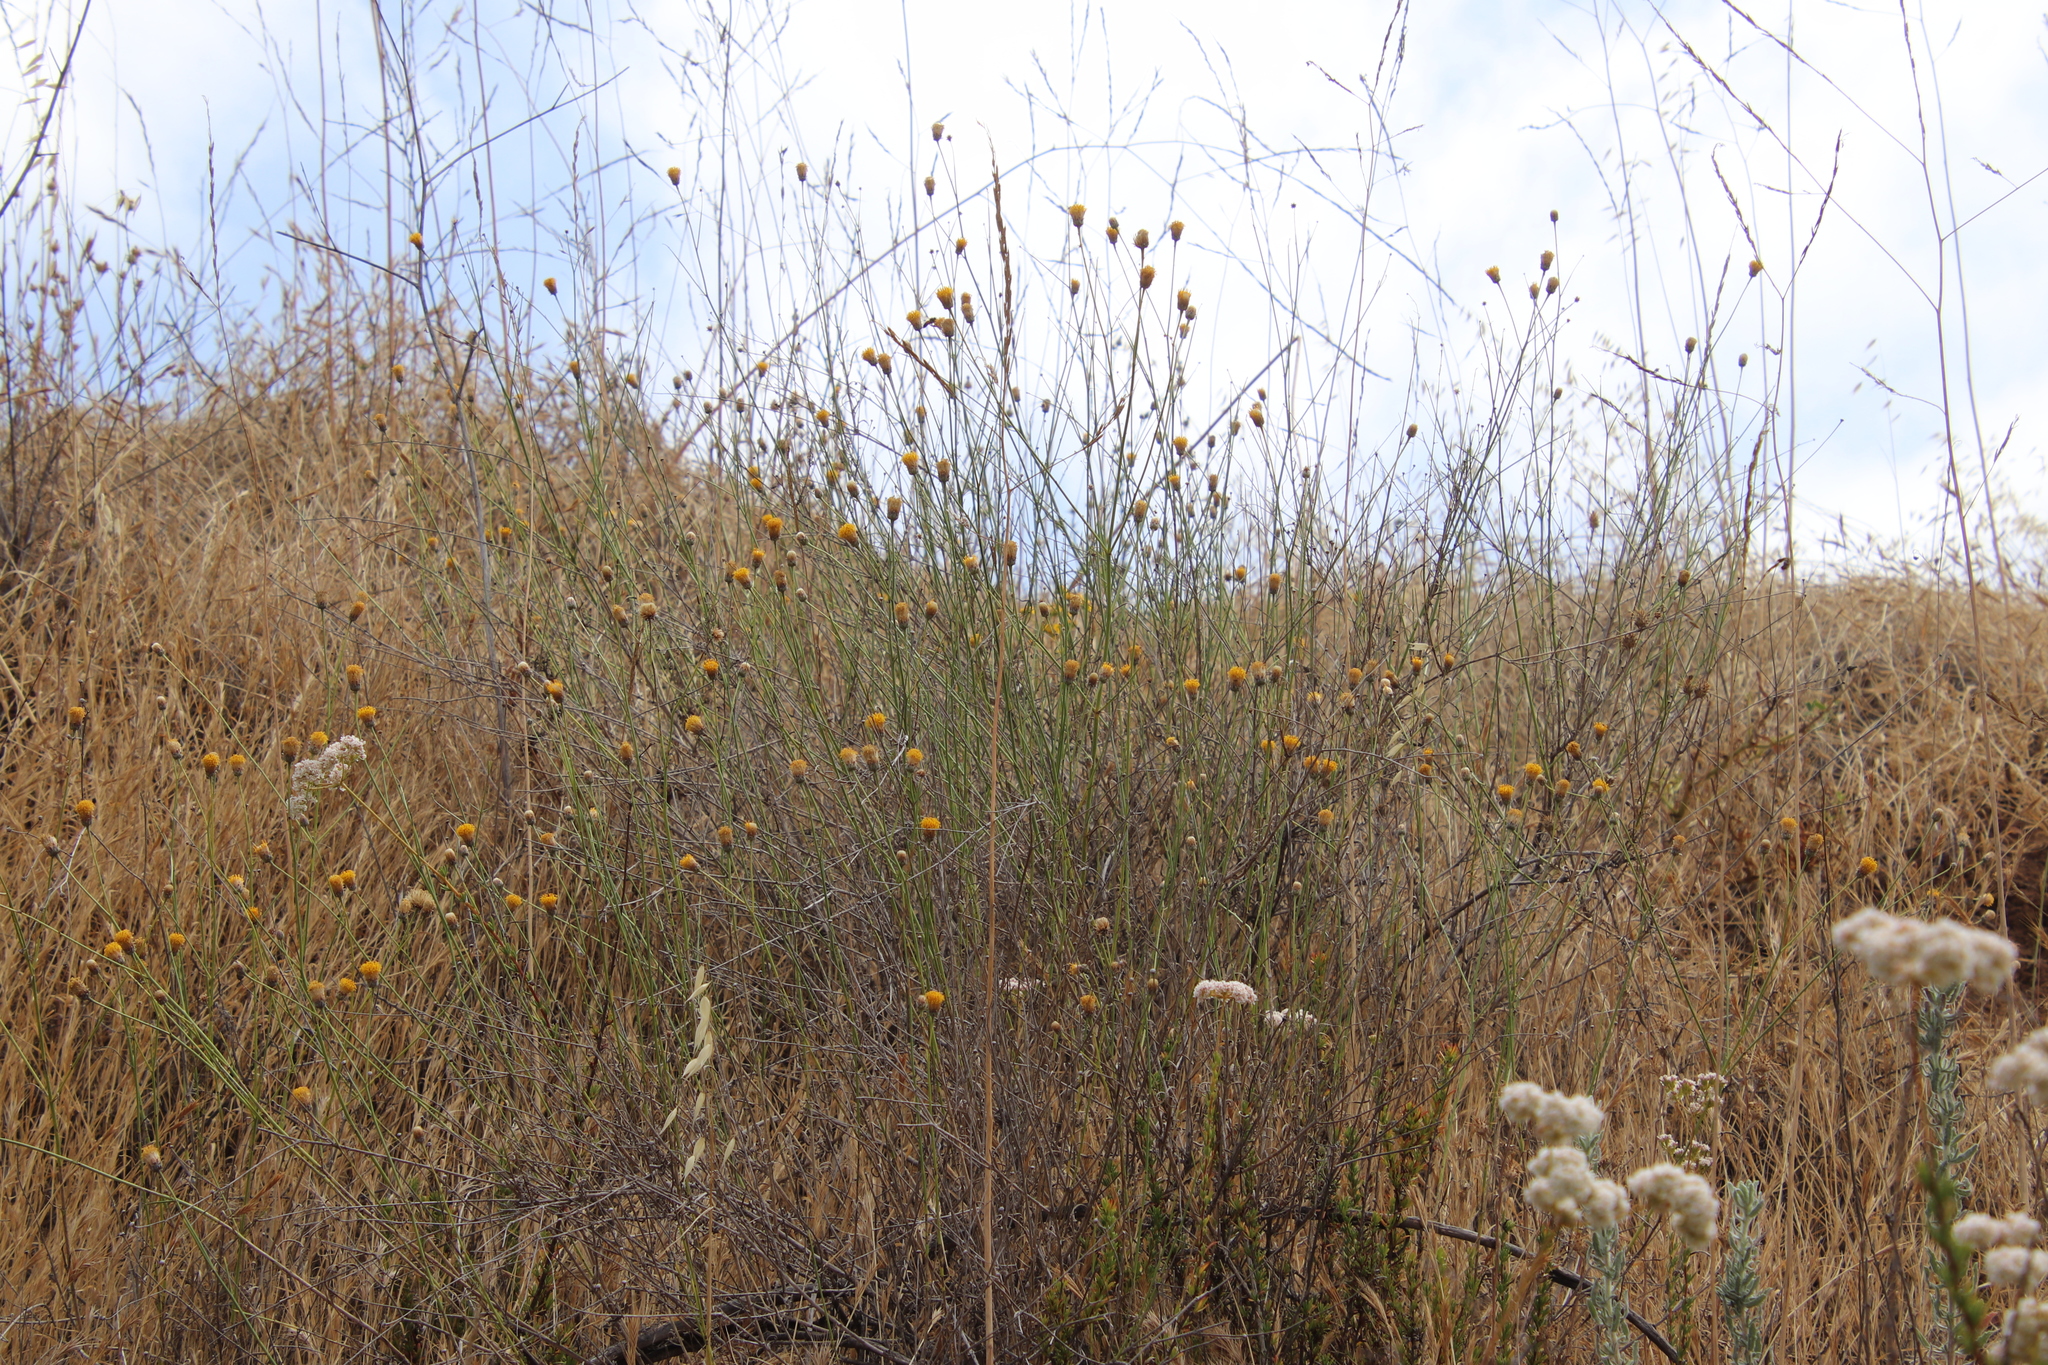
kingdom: Plantae
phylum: Tracheophyta
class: Magnoliopsida
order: Asterales
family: Asteraceae
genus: Bebbia
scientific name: Bebbia juncea
